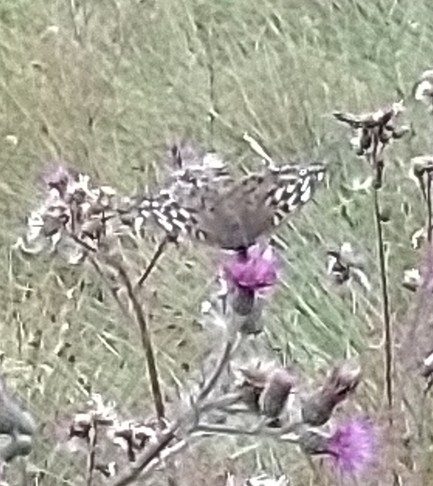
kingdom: Animalia
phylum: Arthropoda
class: Insecta
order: Lepidoptera
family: Nymphalidae
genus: Argynnis
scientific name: Argynnis paphia
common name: Silver-washed fritillary
